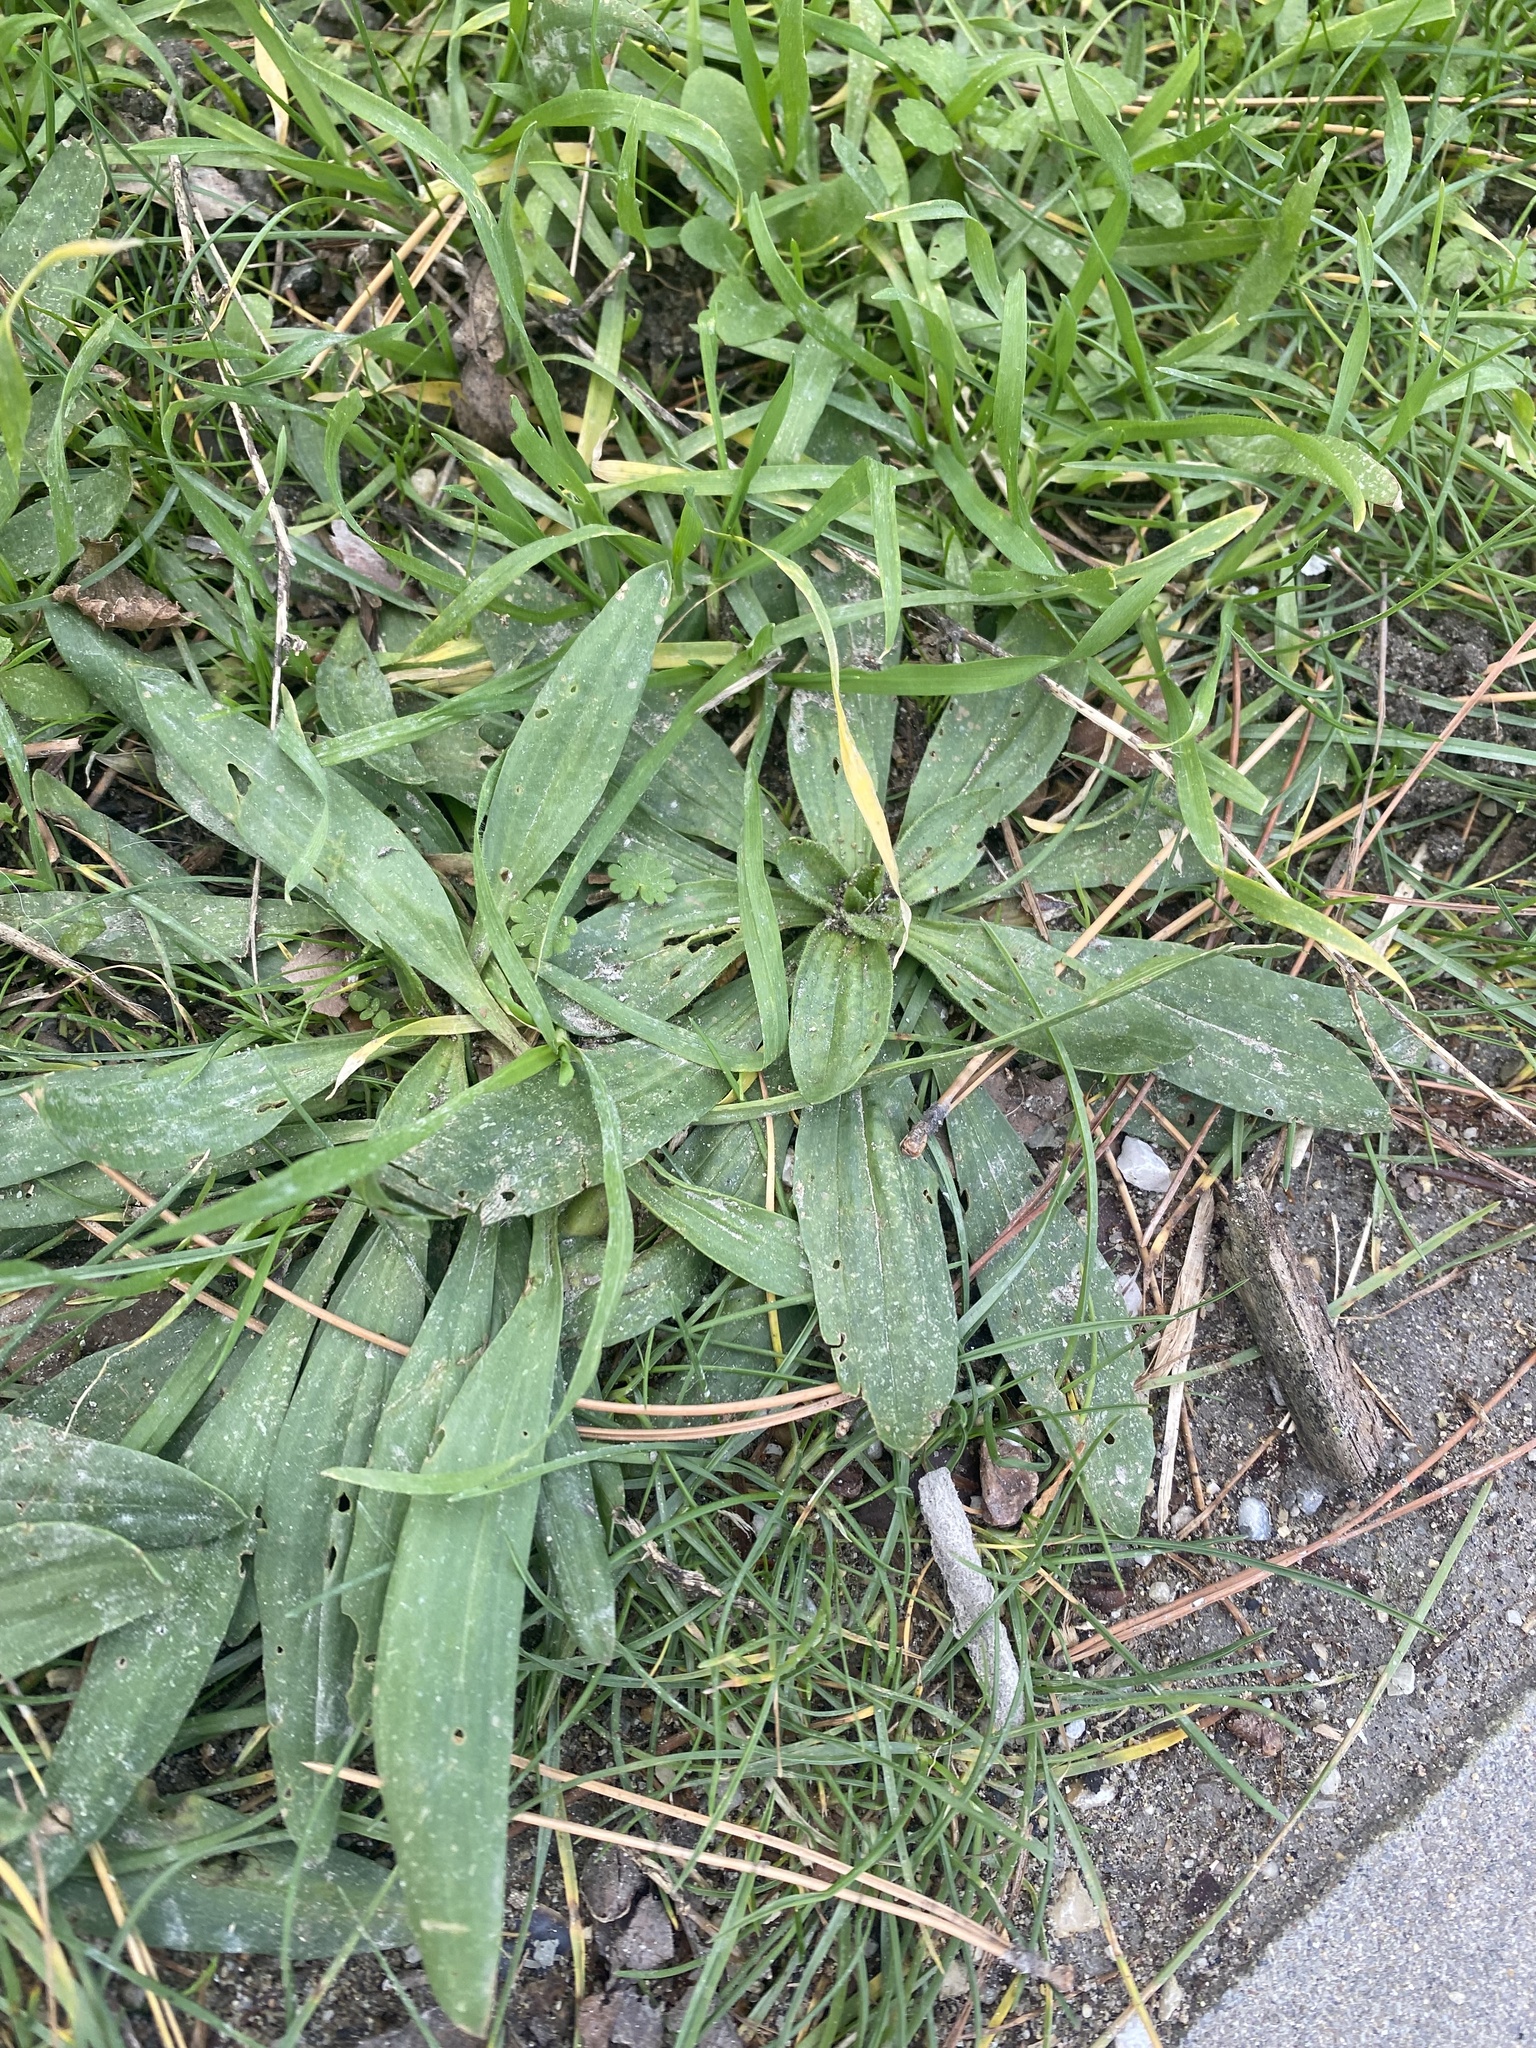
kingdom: Plantae
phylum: Tracheophyta
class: Magnoliopsida
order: Lamiales
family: Plantaginaceae
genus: Plantago
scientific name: Plantago lanceolata
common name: Ribwort plantain
